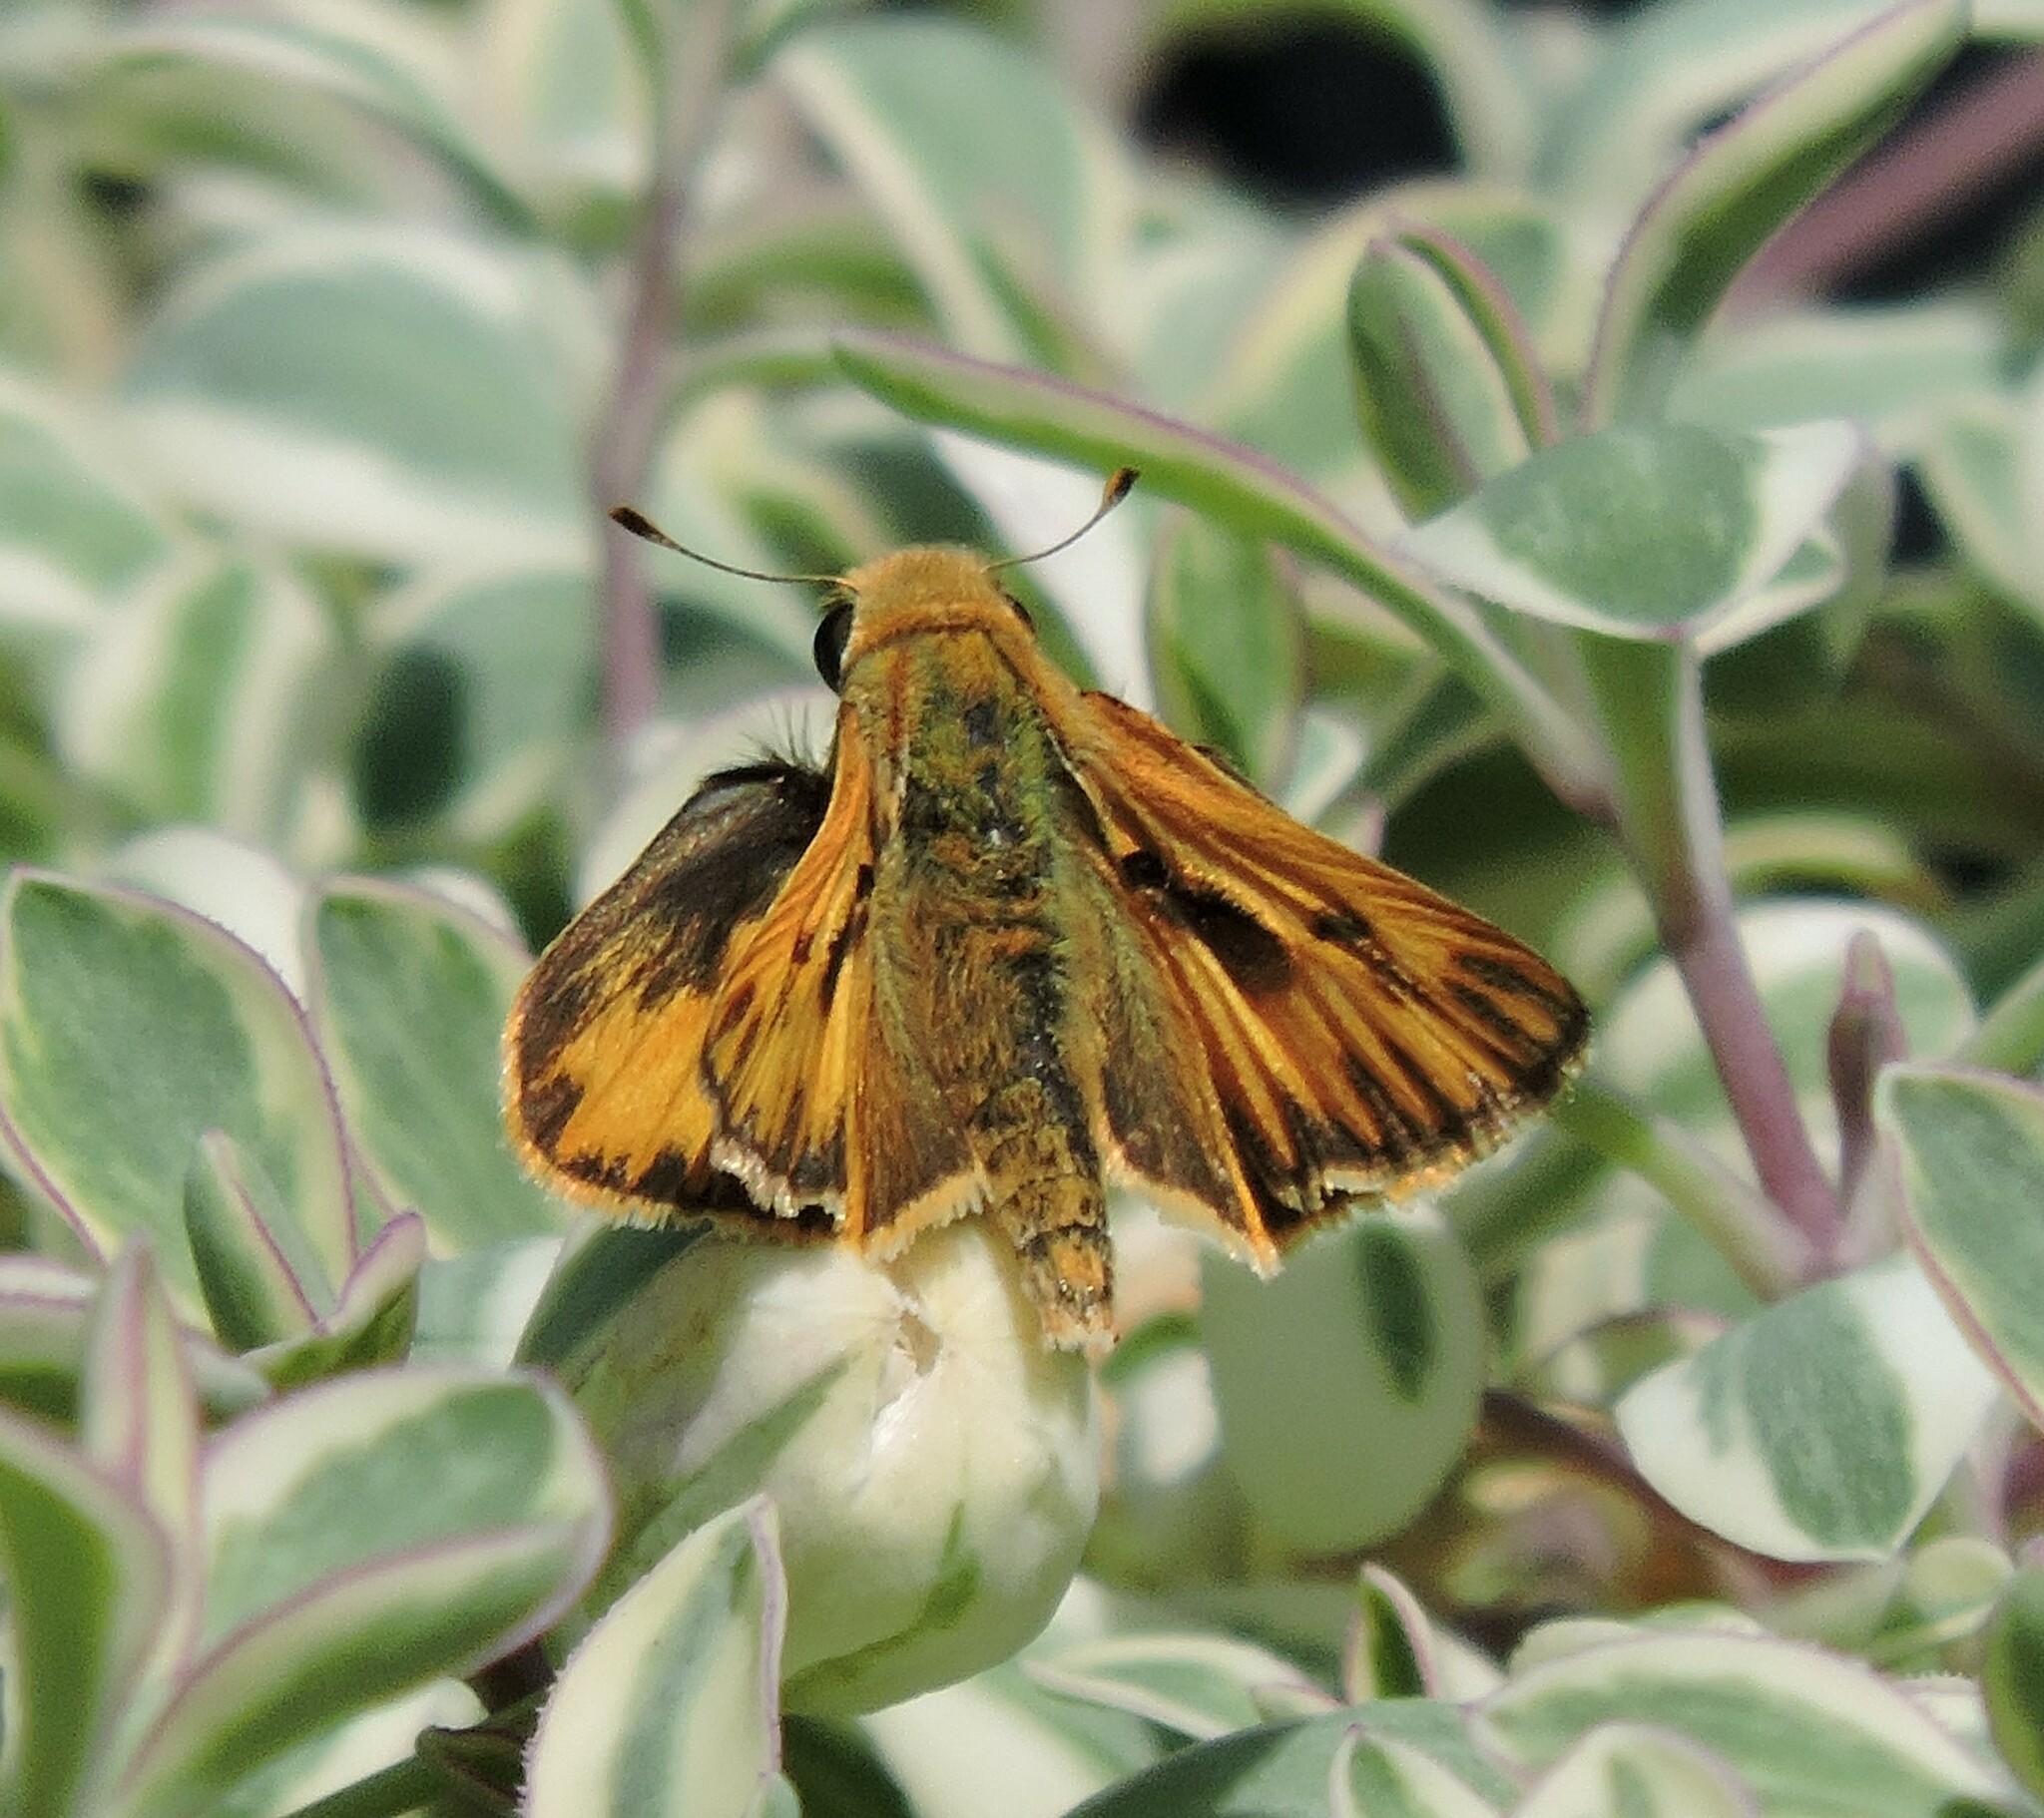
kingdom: Animalia
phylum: Arthropoda
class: Insecta
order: Lepidoptera
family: Hesperiidae
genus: Hylephila
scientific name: Hylephila phyleus
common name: Fiery skipper
